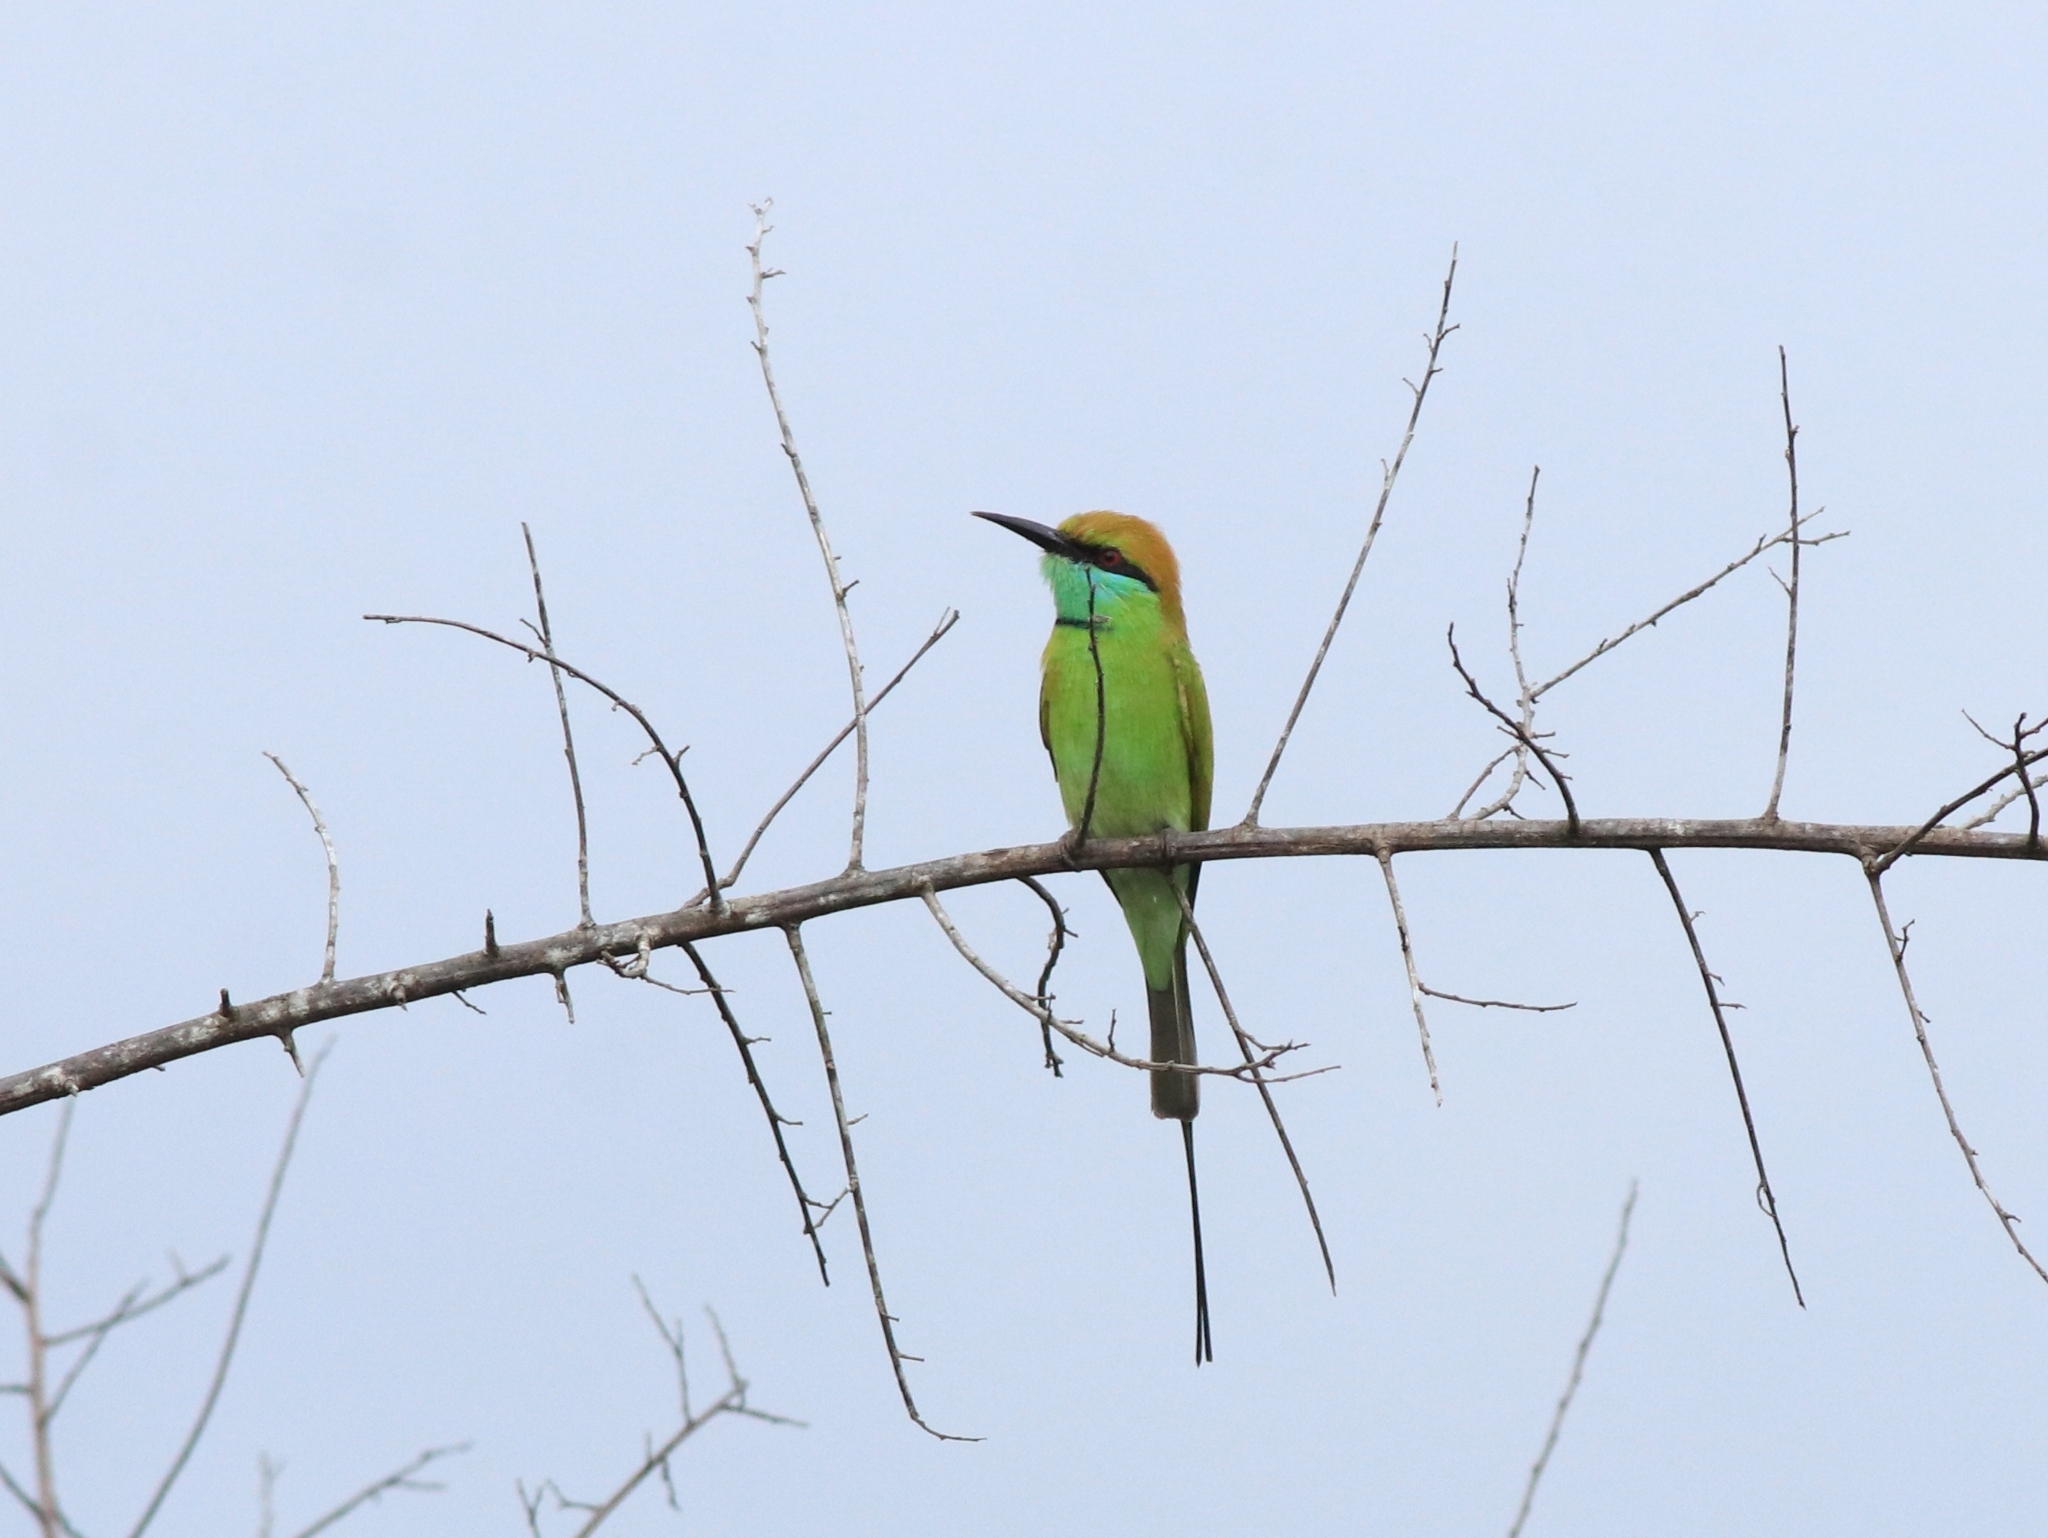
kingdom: Animalia
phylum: Chordata
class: Aves
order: Coraciiformes
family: Meropidae
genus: Merops
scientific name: Merops orientalis
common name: Green bee-eater
